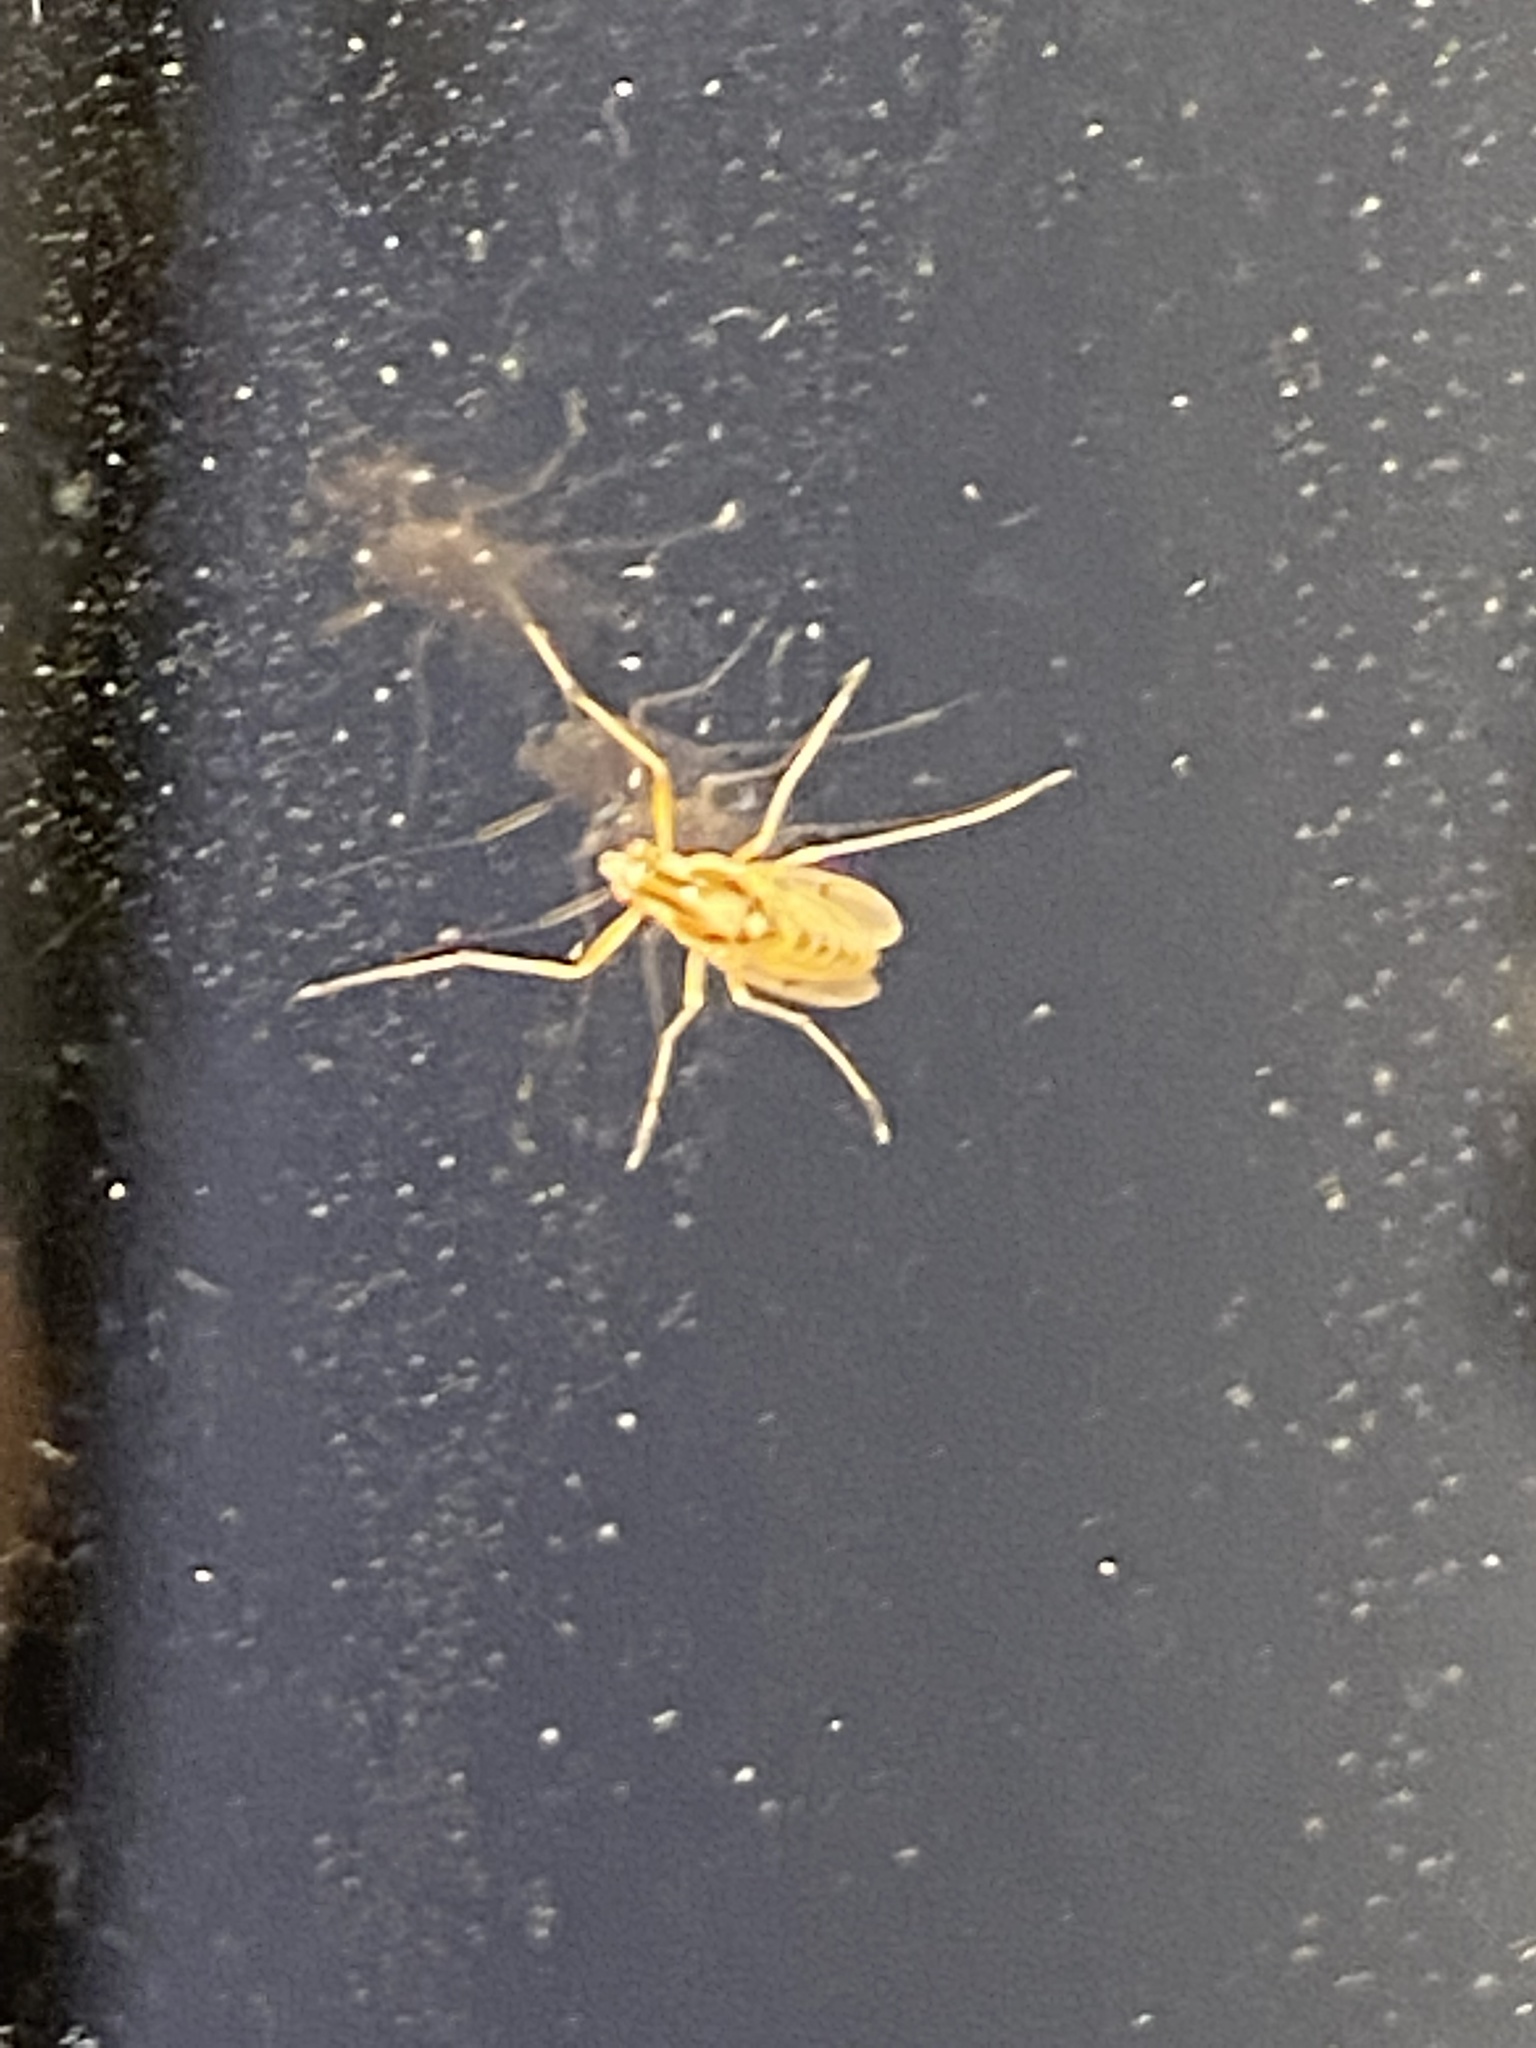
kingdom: Animalia
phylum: Arthropoda
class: Insecta
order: Diptera
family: Chironomidae
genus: Coelotanypus
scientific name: Coelotanypus concinnus
